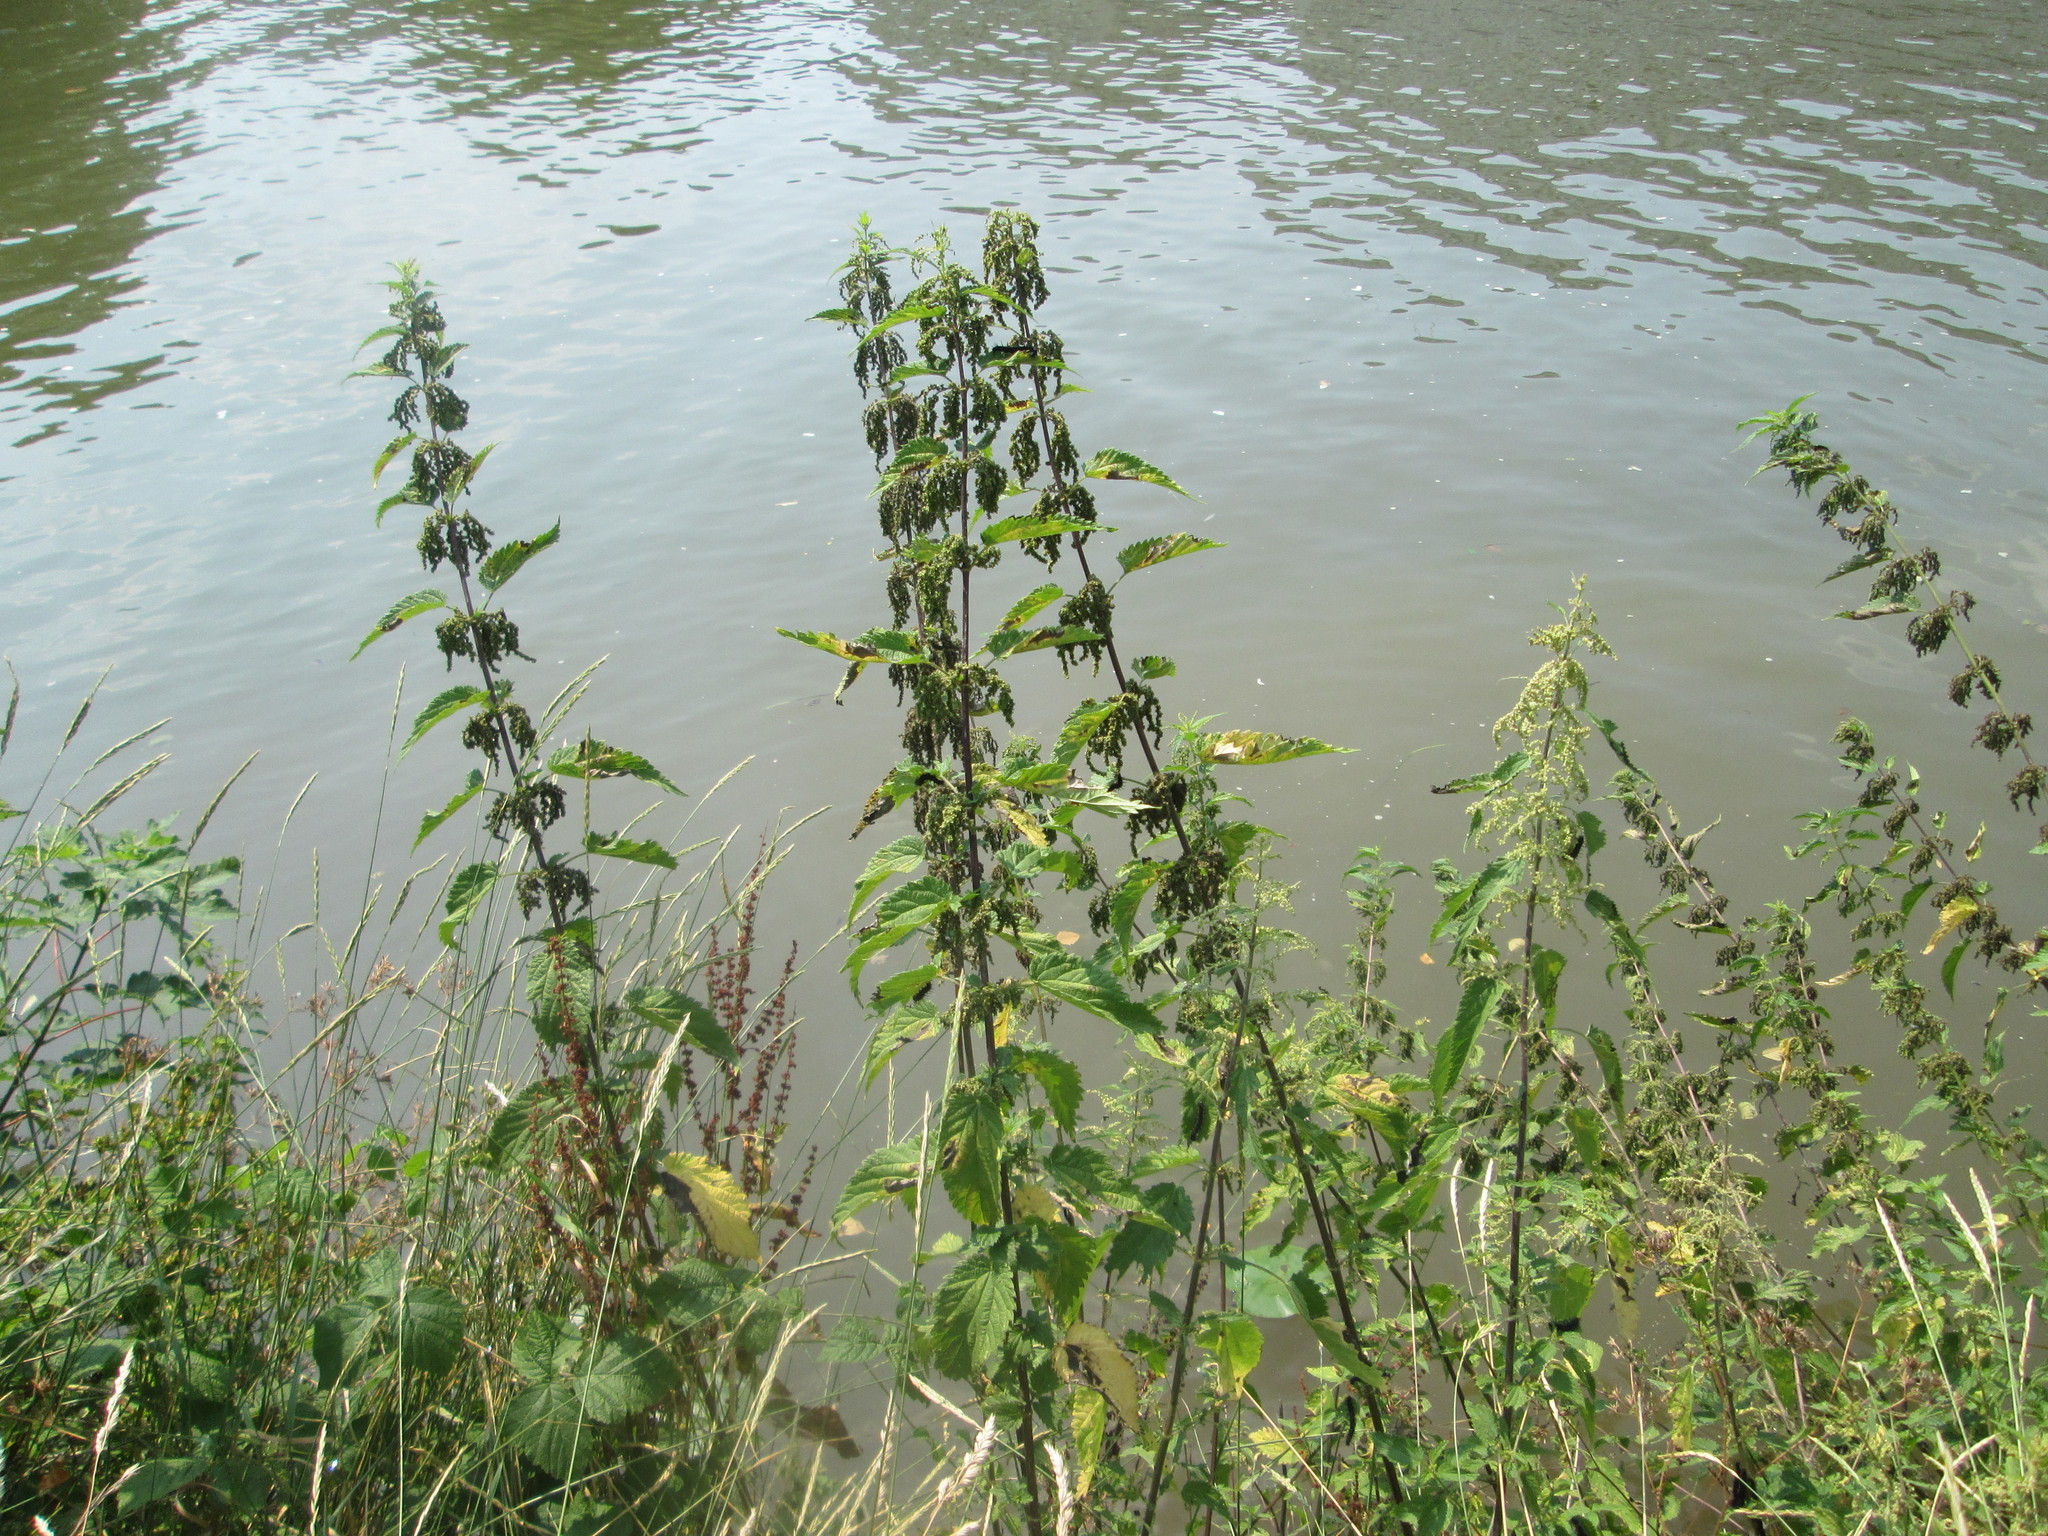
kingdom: Plantae
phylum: Tracheophyta
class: Magnoliopsida
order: Rosales
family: Urticaceae
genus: Urtica
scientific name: Urtica dioica
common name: Common nettle
